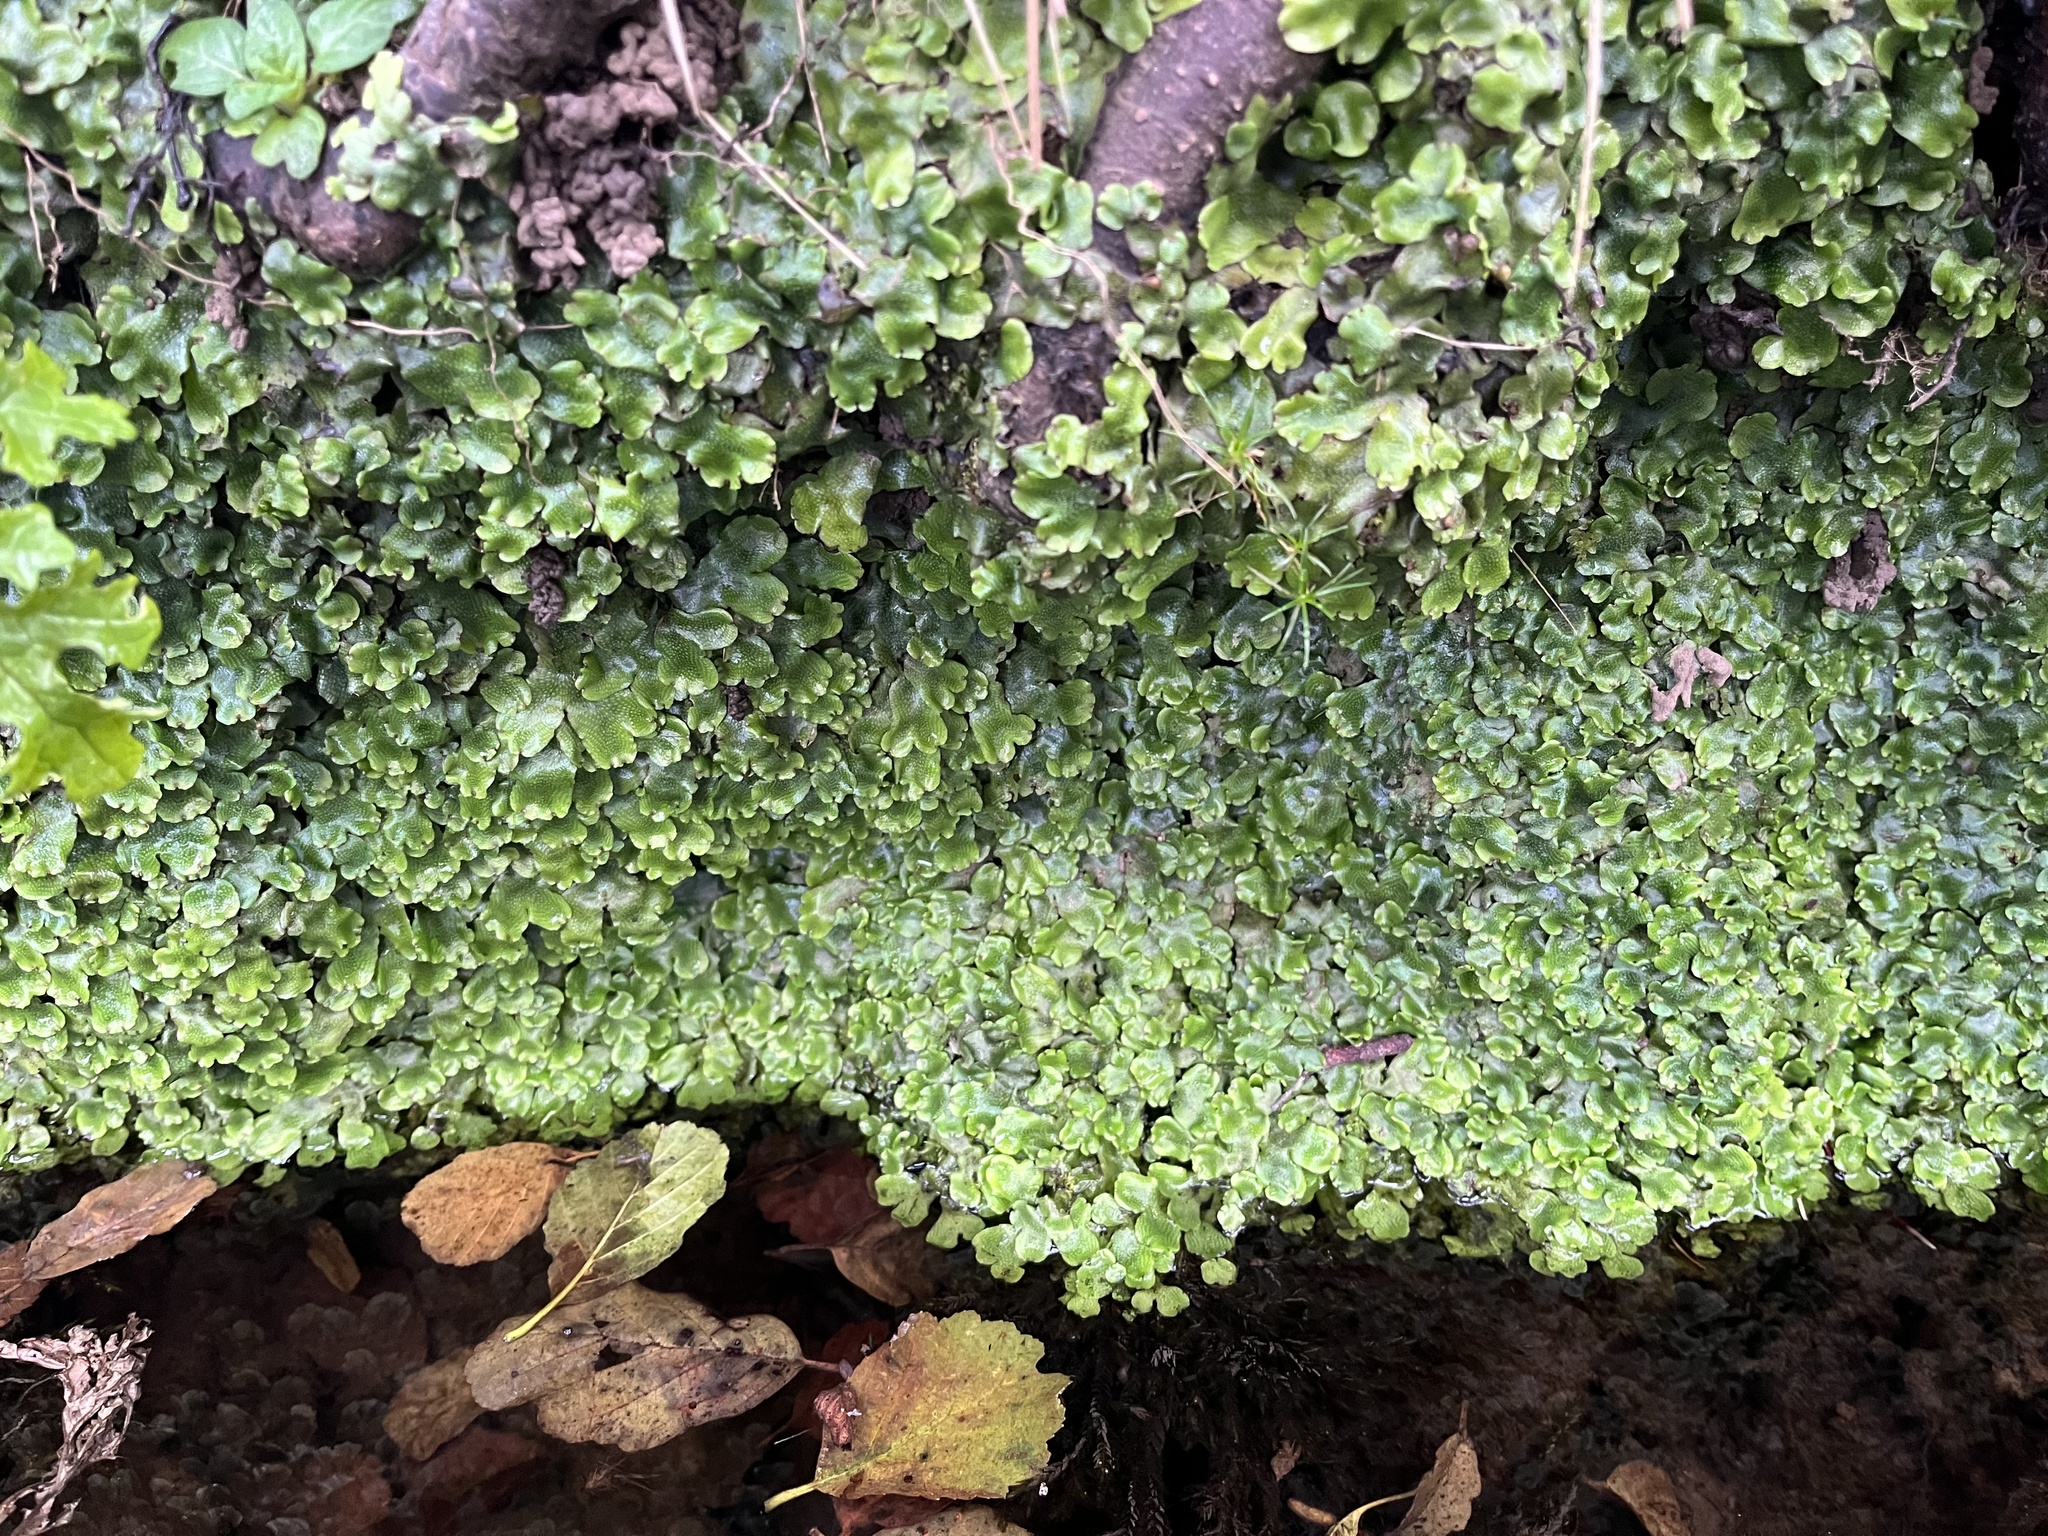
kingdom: Plantae
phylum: Marchantiophyta
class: Marchantiopsida
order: Marchantiales
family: Conocephalaceae
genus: Conocephalum
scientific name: Conocephalum conicum
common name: Great scented liverwort
